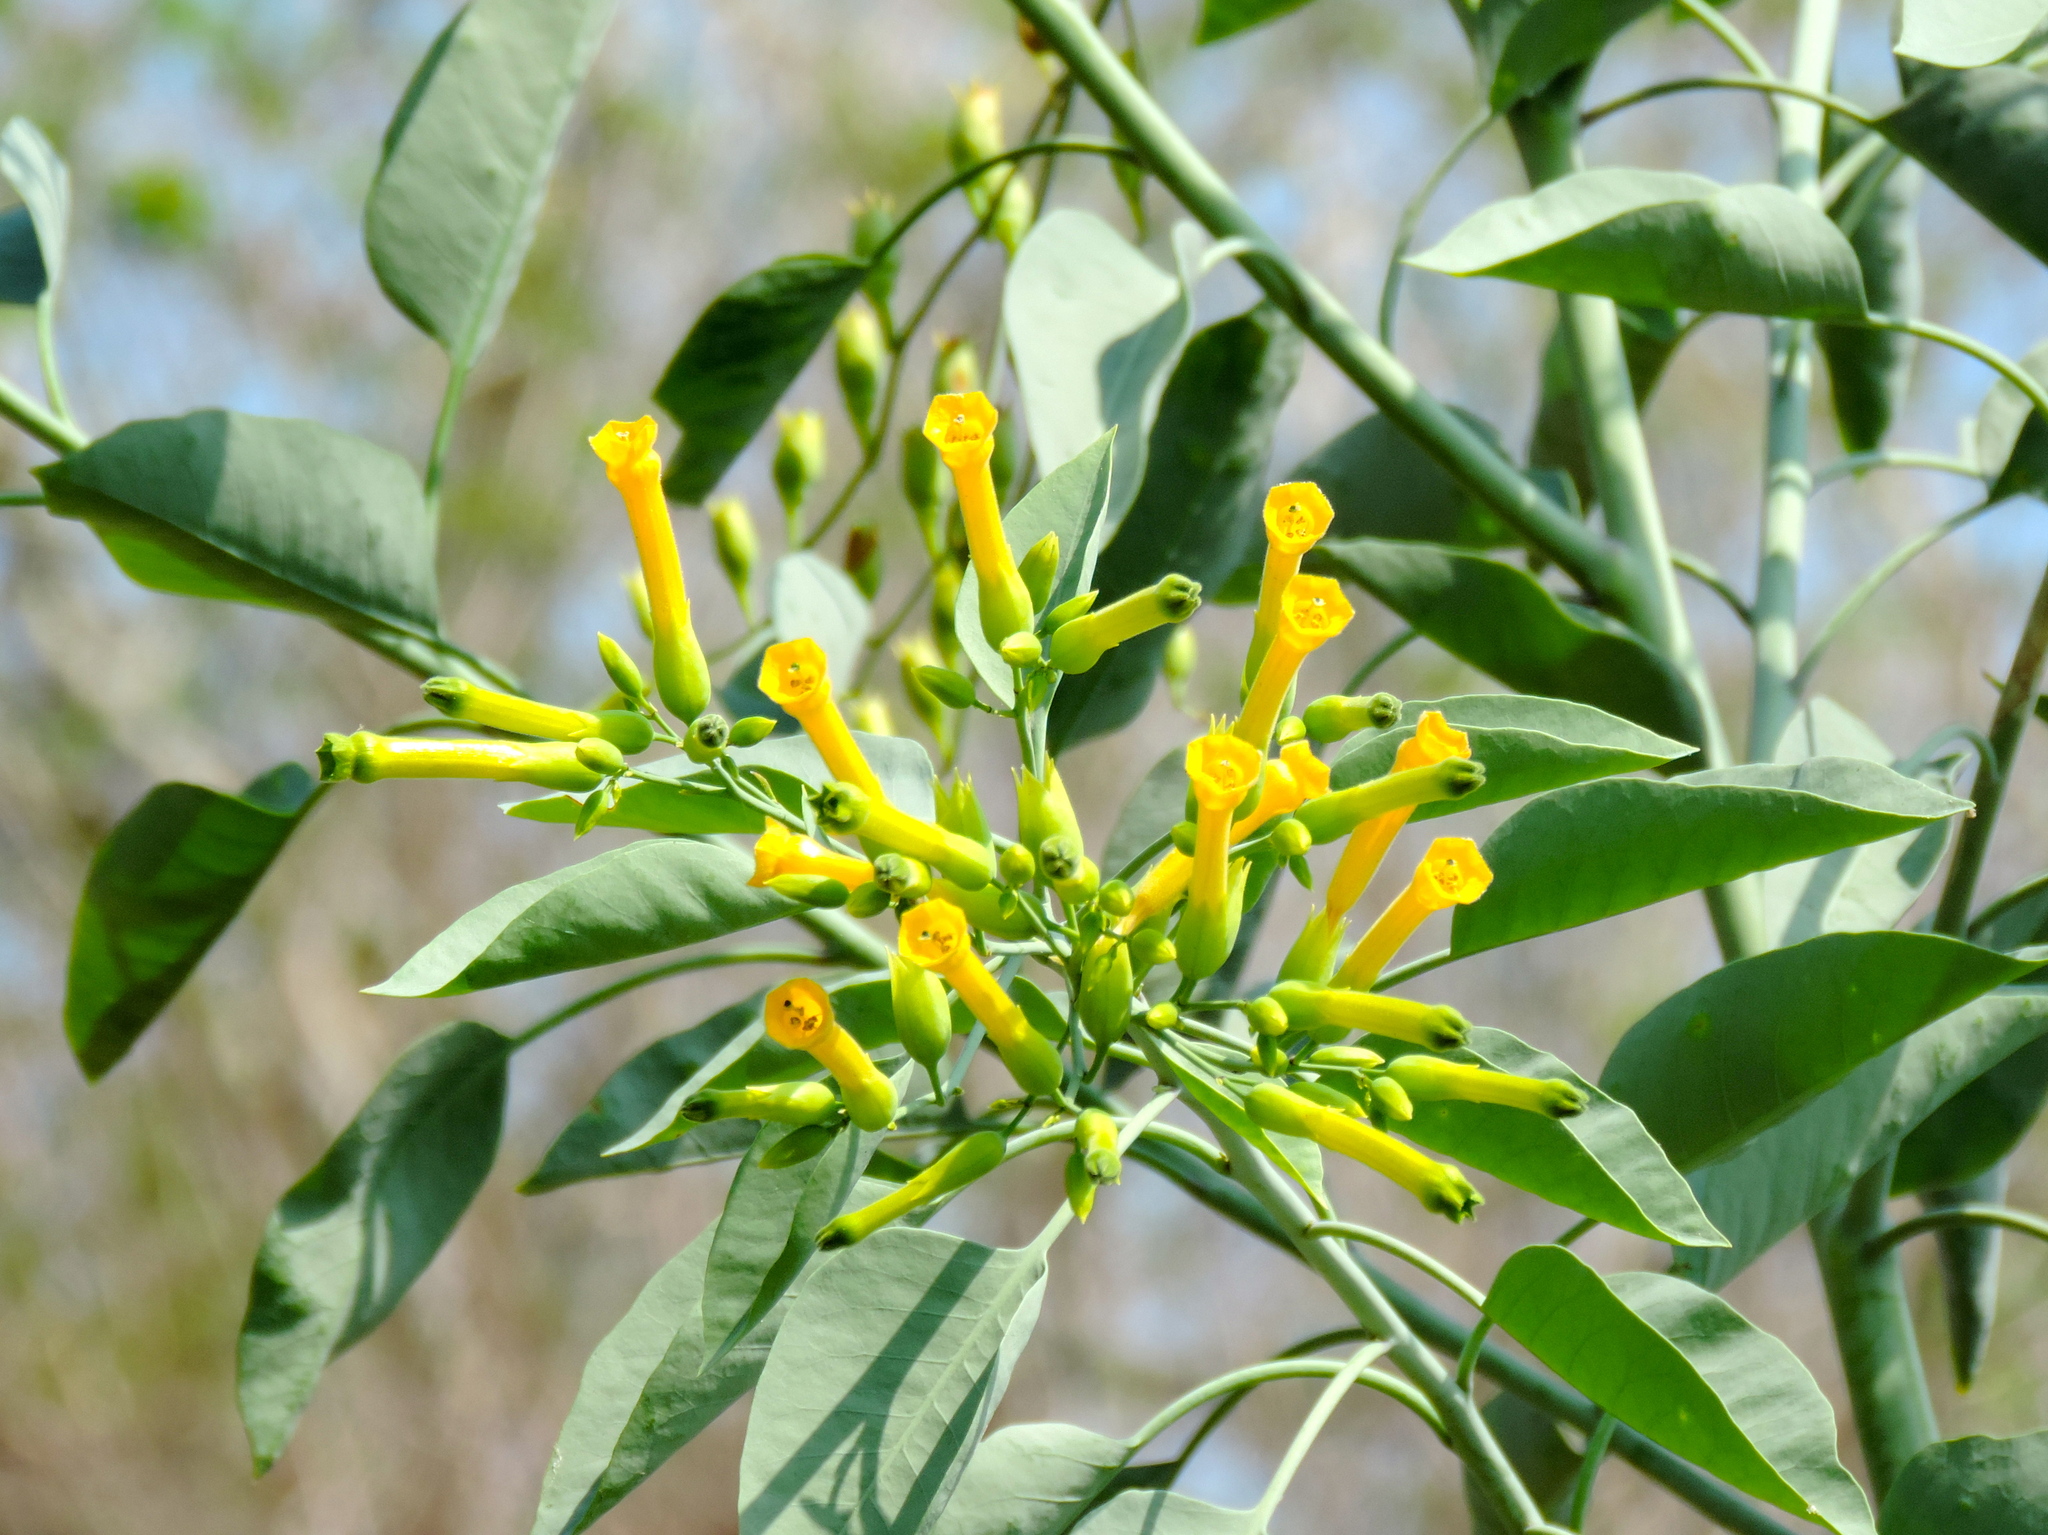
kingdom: Plantae
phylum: Tracheophyta
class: Magnoliopsida
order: Solanales
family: Solanaceae
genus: Nicotiana
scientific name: Nicotiana glauca
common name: Tree tobacco
